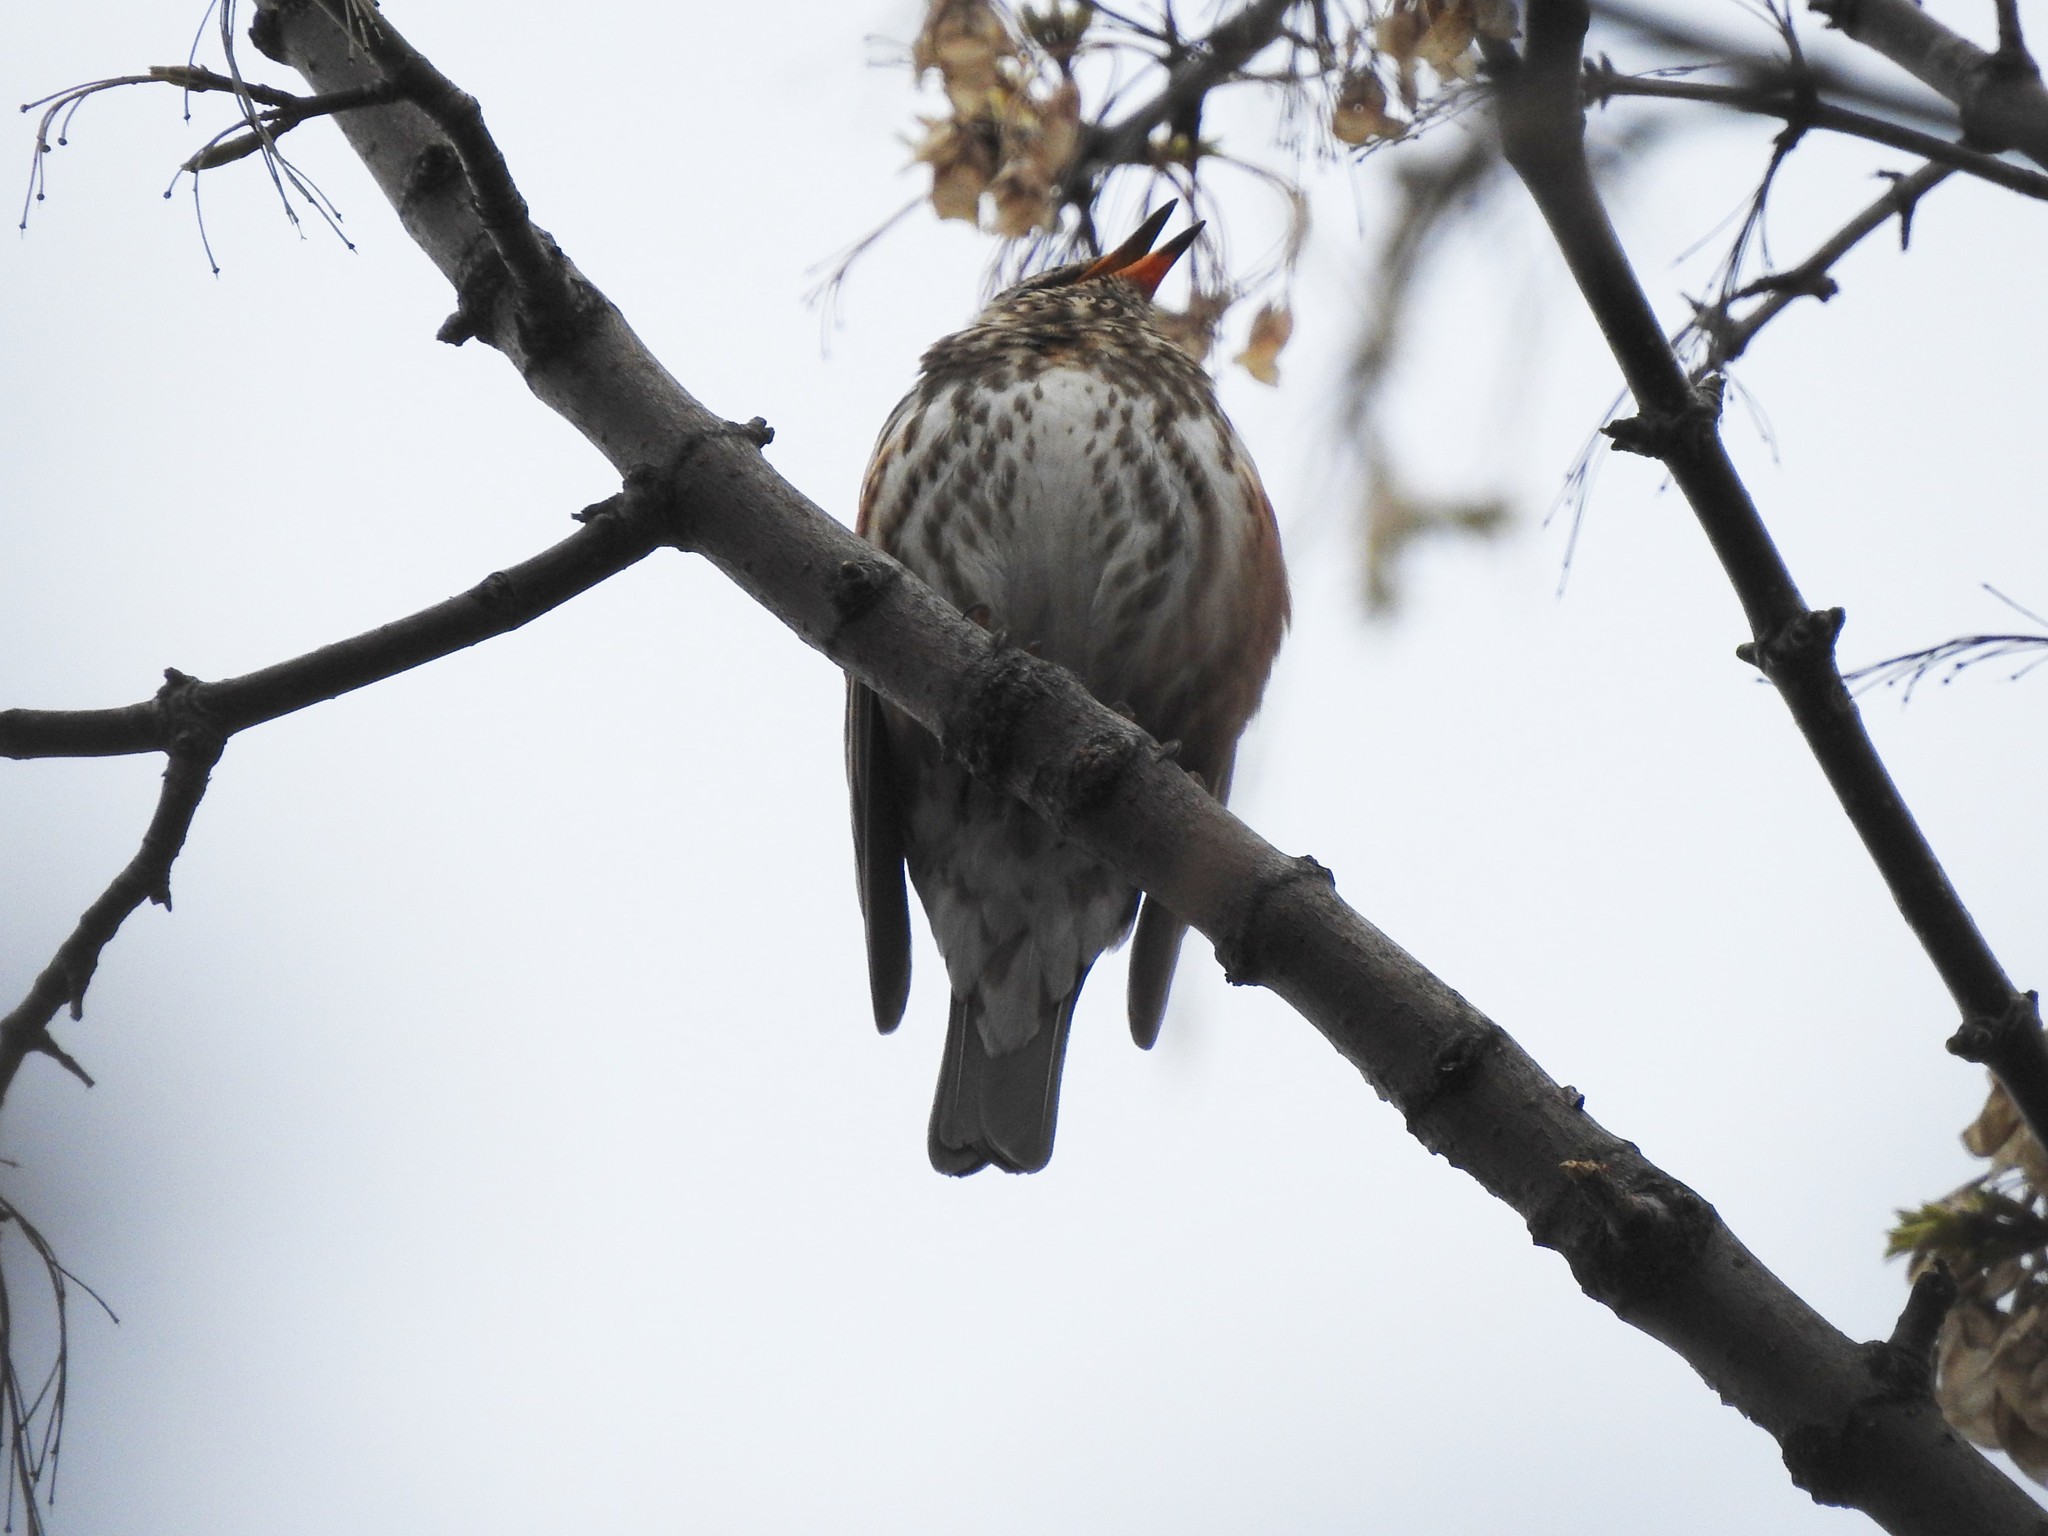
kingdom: Animalia
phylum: Chordata
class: Aves
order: Passeriformes
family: Turdidae
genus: Turdus
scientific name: Turdus iliacus
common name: Redwing
